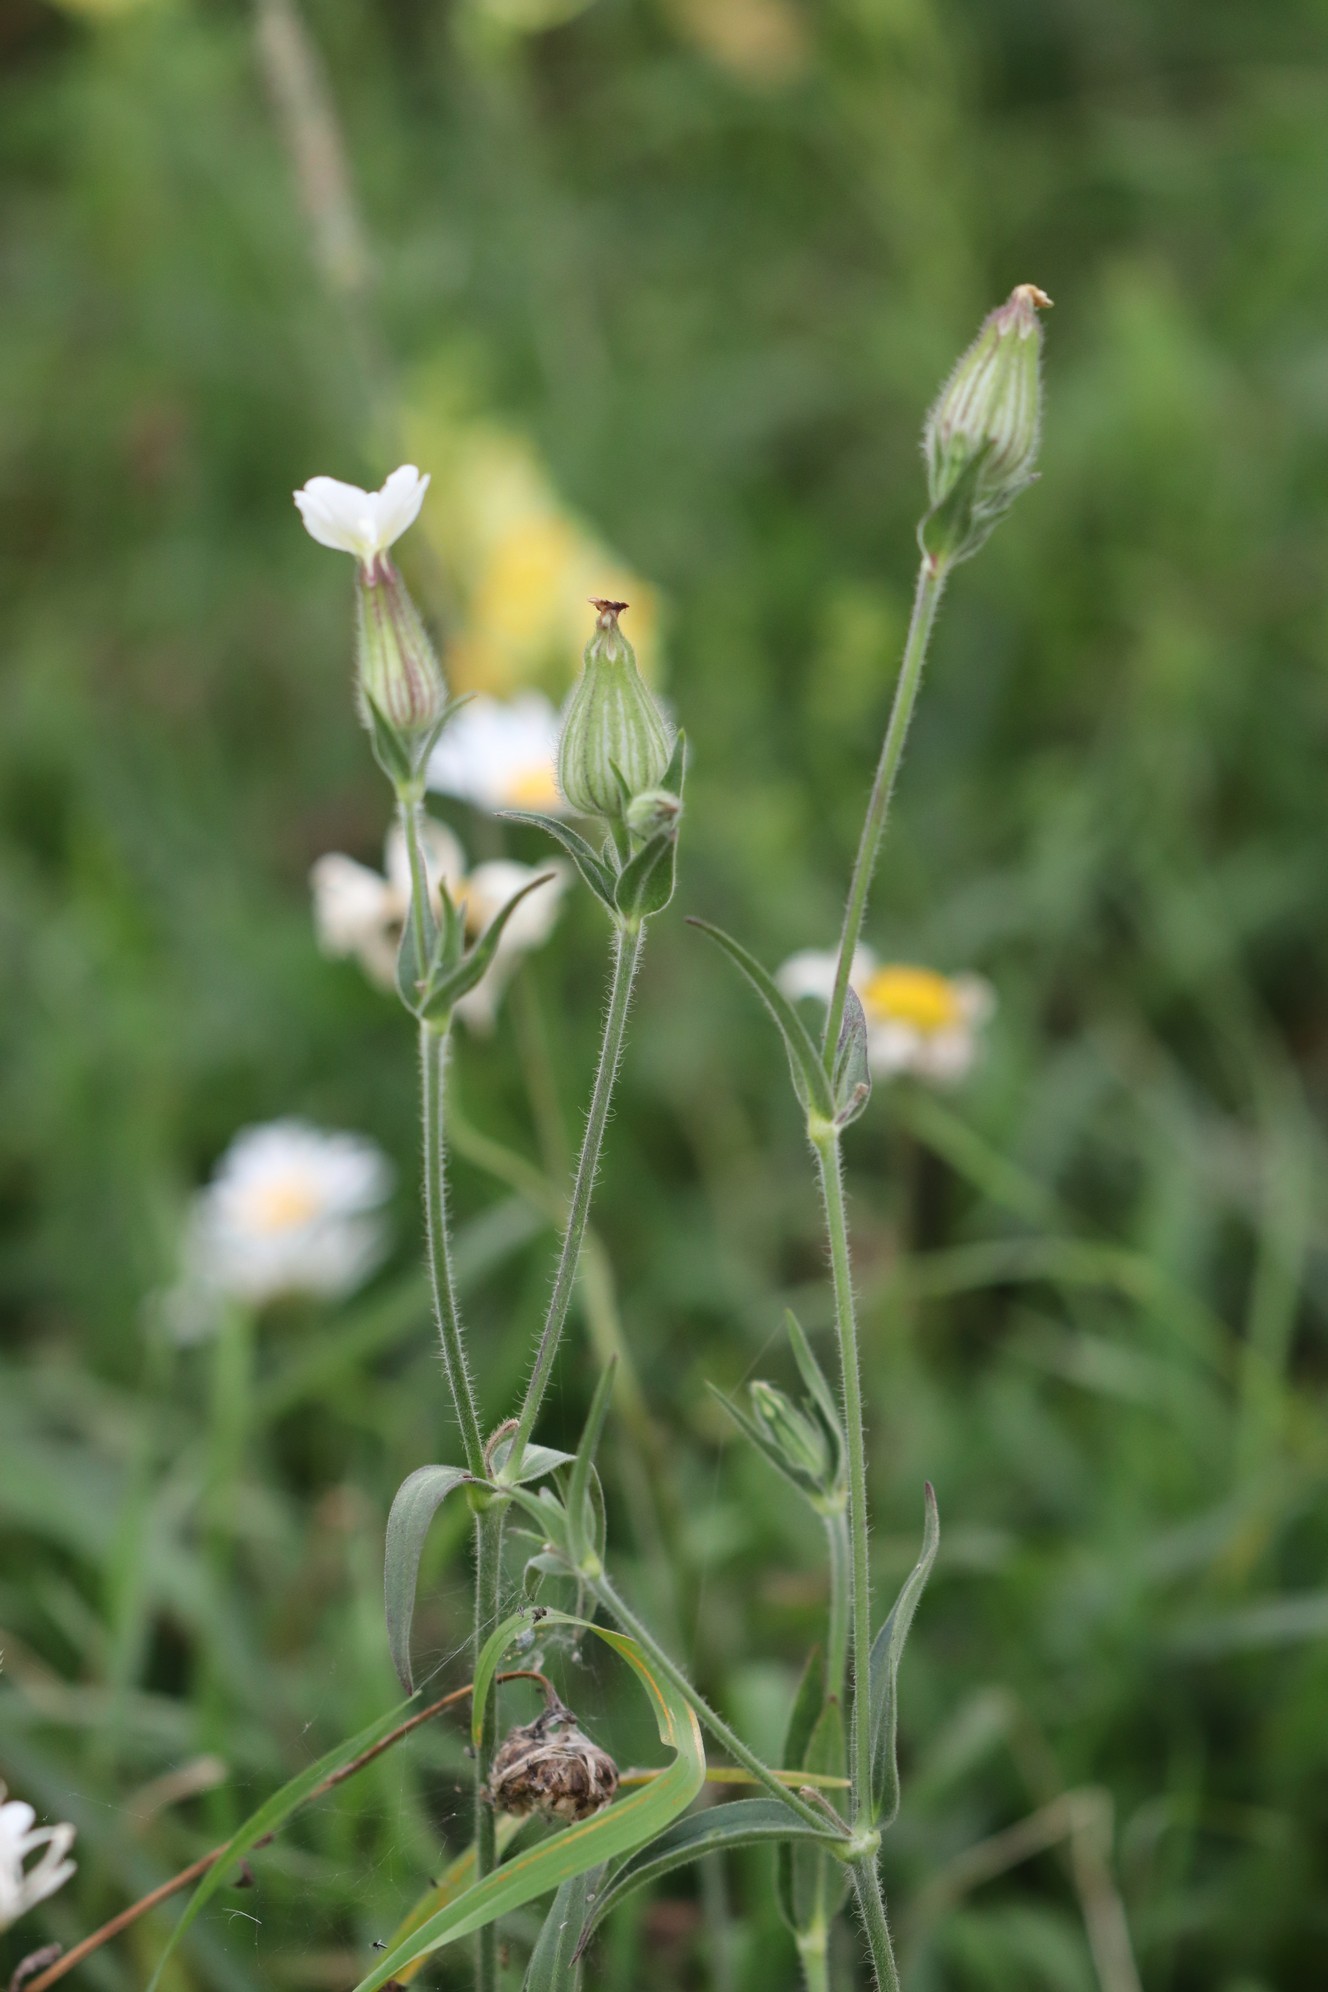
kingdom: Plantae
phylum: Tracheophyta
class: Magnoliopsida
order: Caryophyllales
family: Caryophyllaceae
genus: Silene
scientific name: Silene latifolia
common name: White campion
